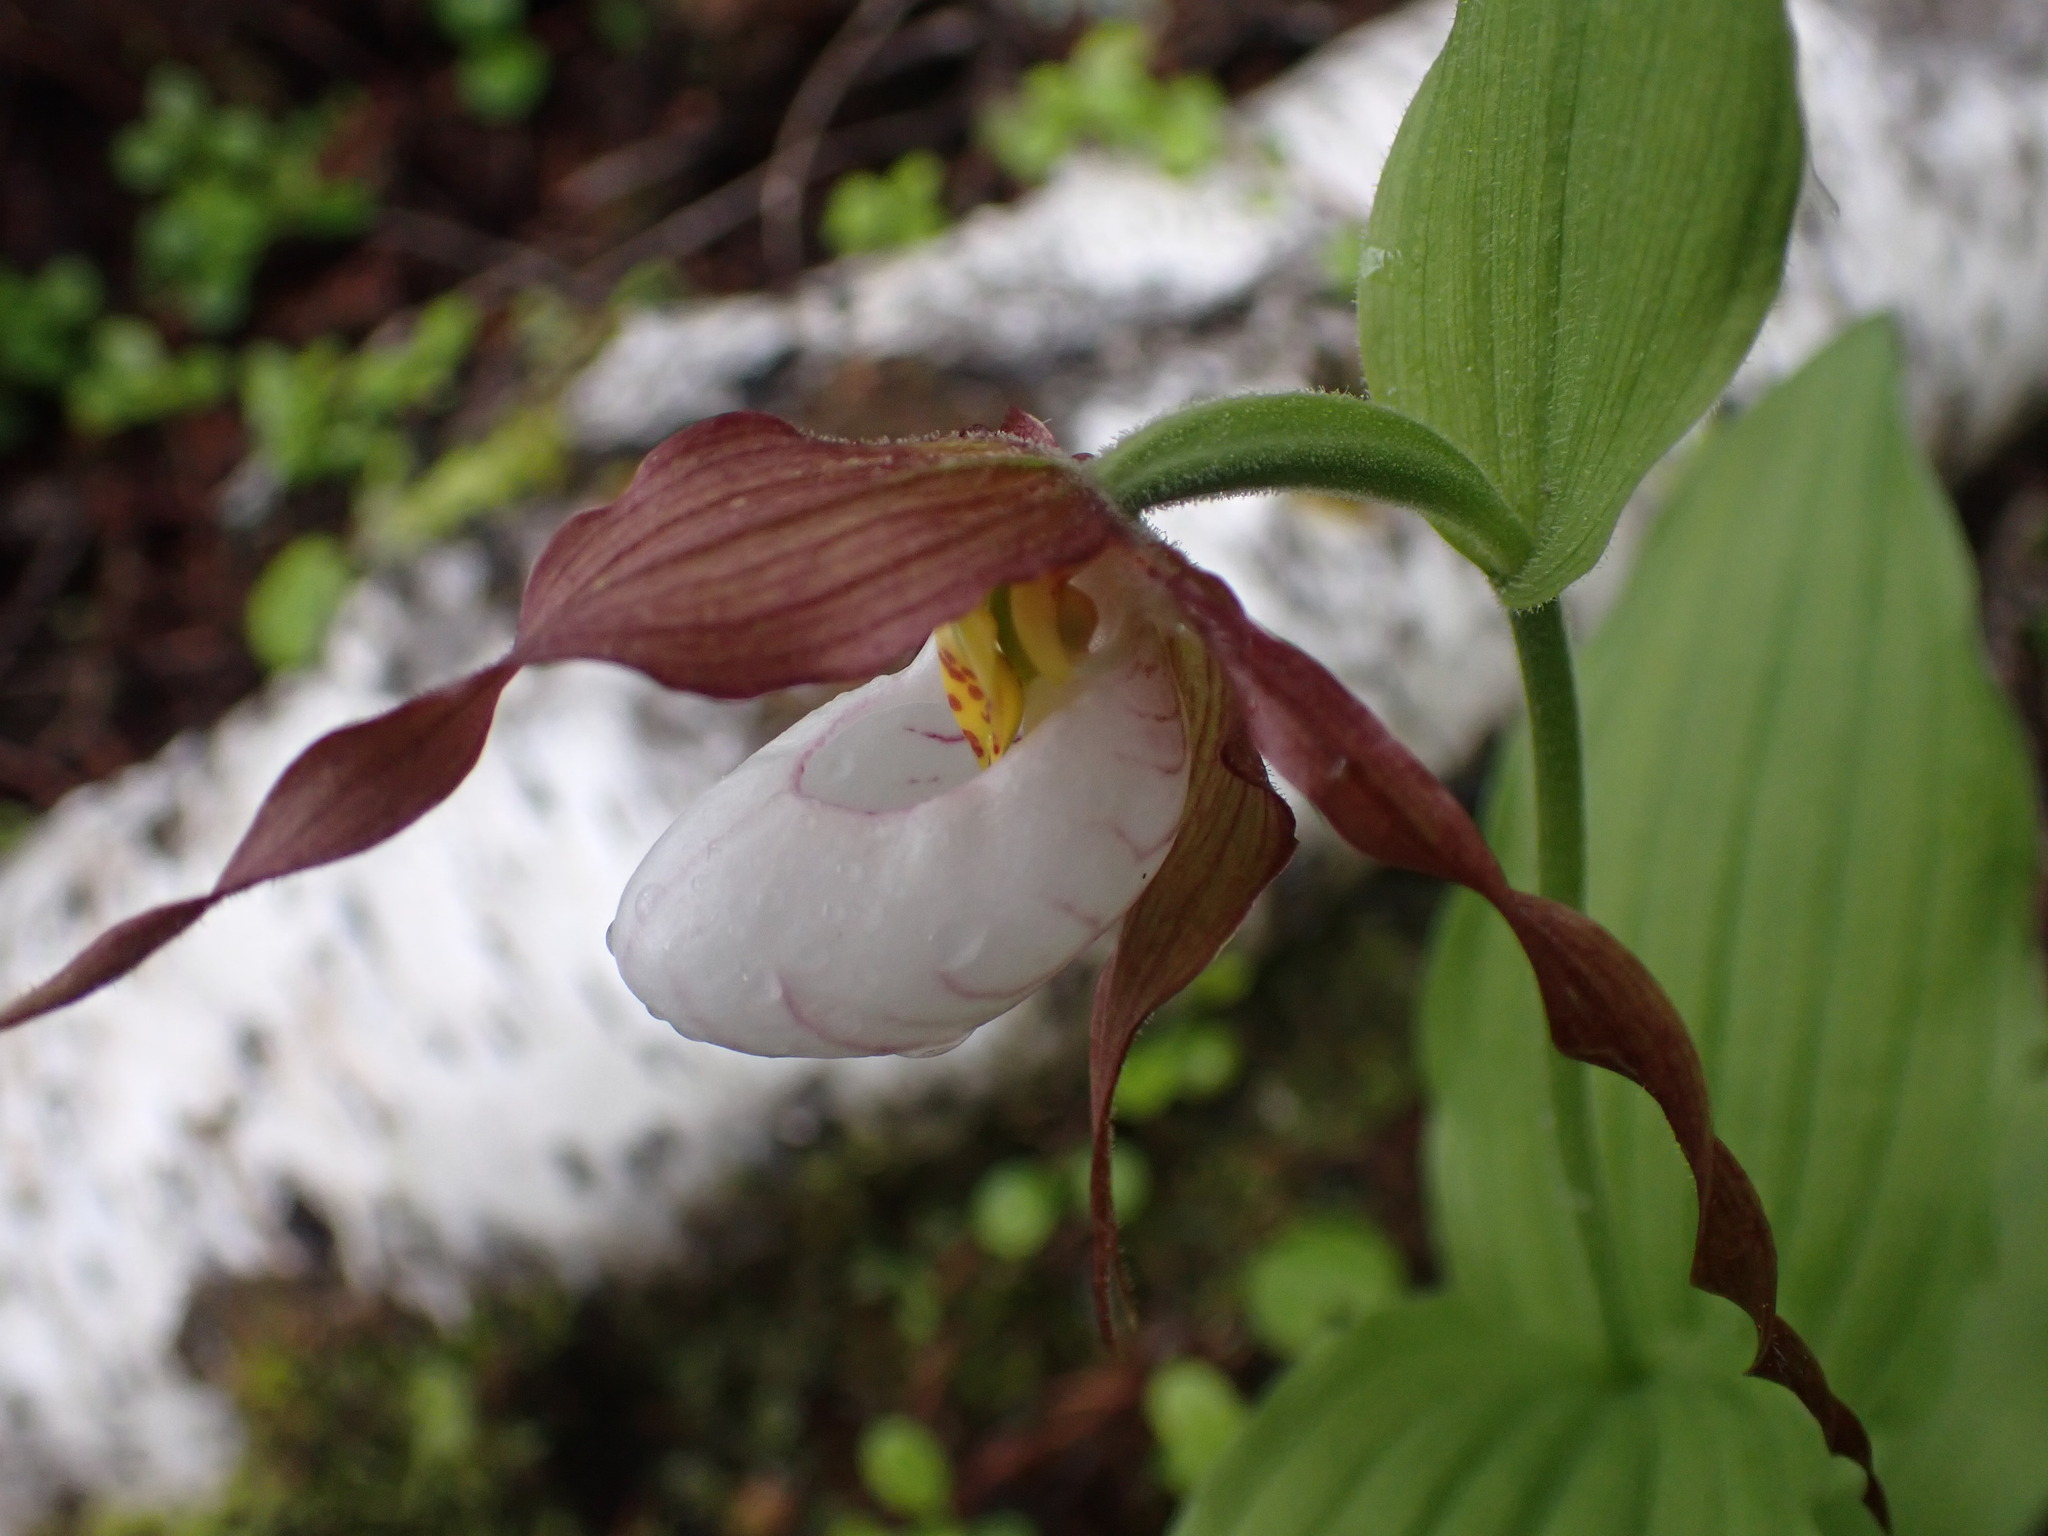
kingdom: Plantae
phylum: Tracheophyta
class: Liliopsida
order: Asparagales
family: Orchidaceae
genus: Cypripedium
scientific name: Cypripedium montanum
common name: Mountain lady's-slipper
